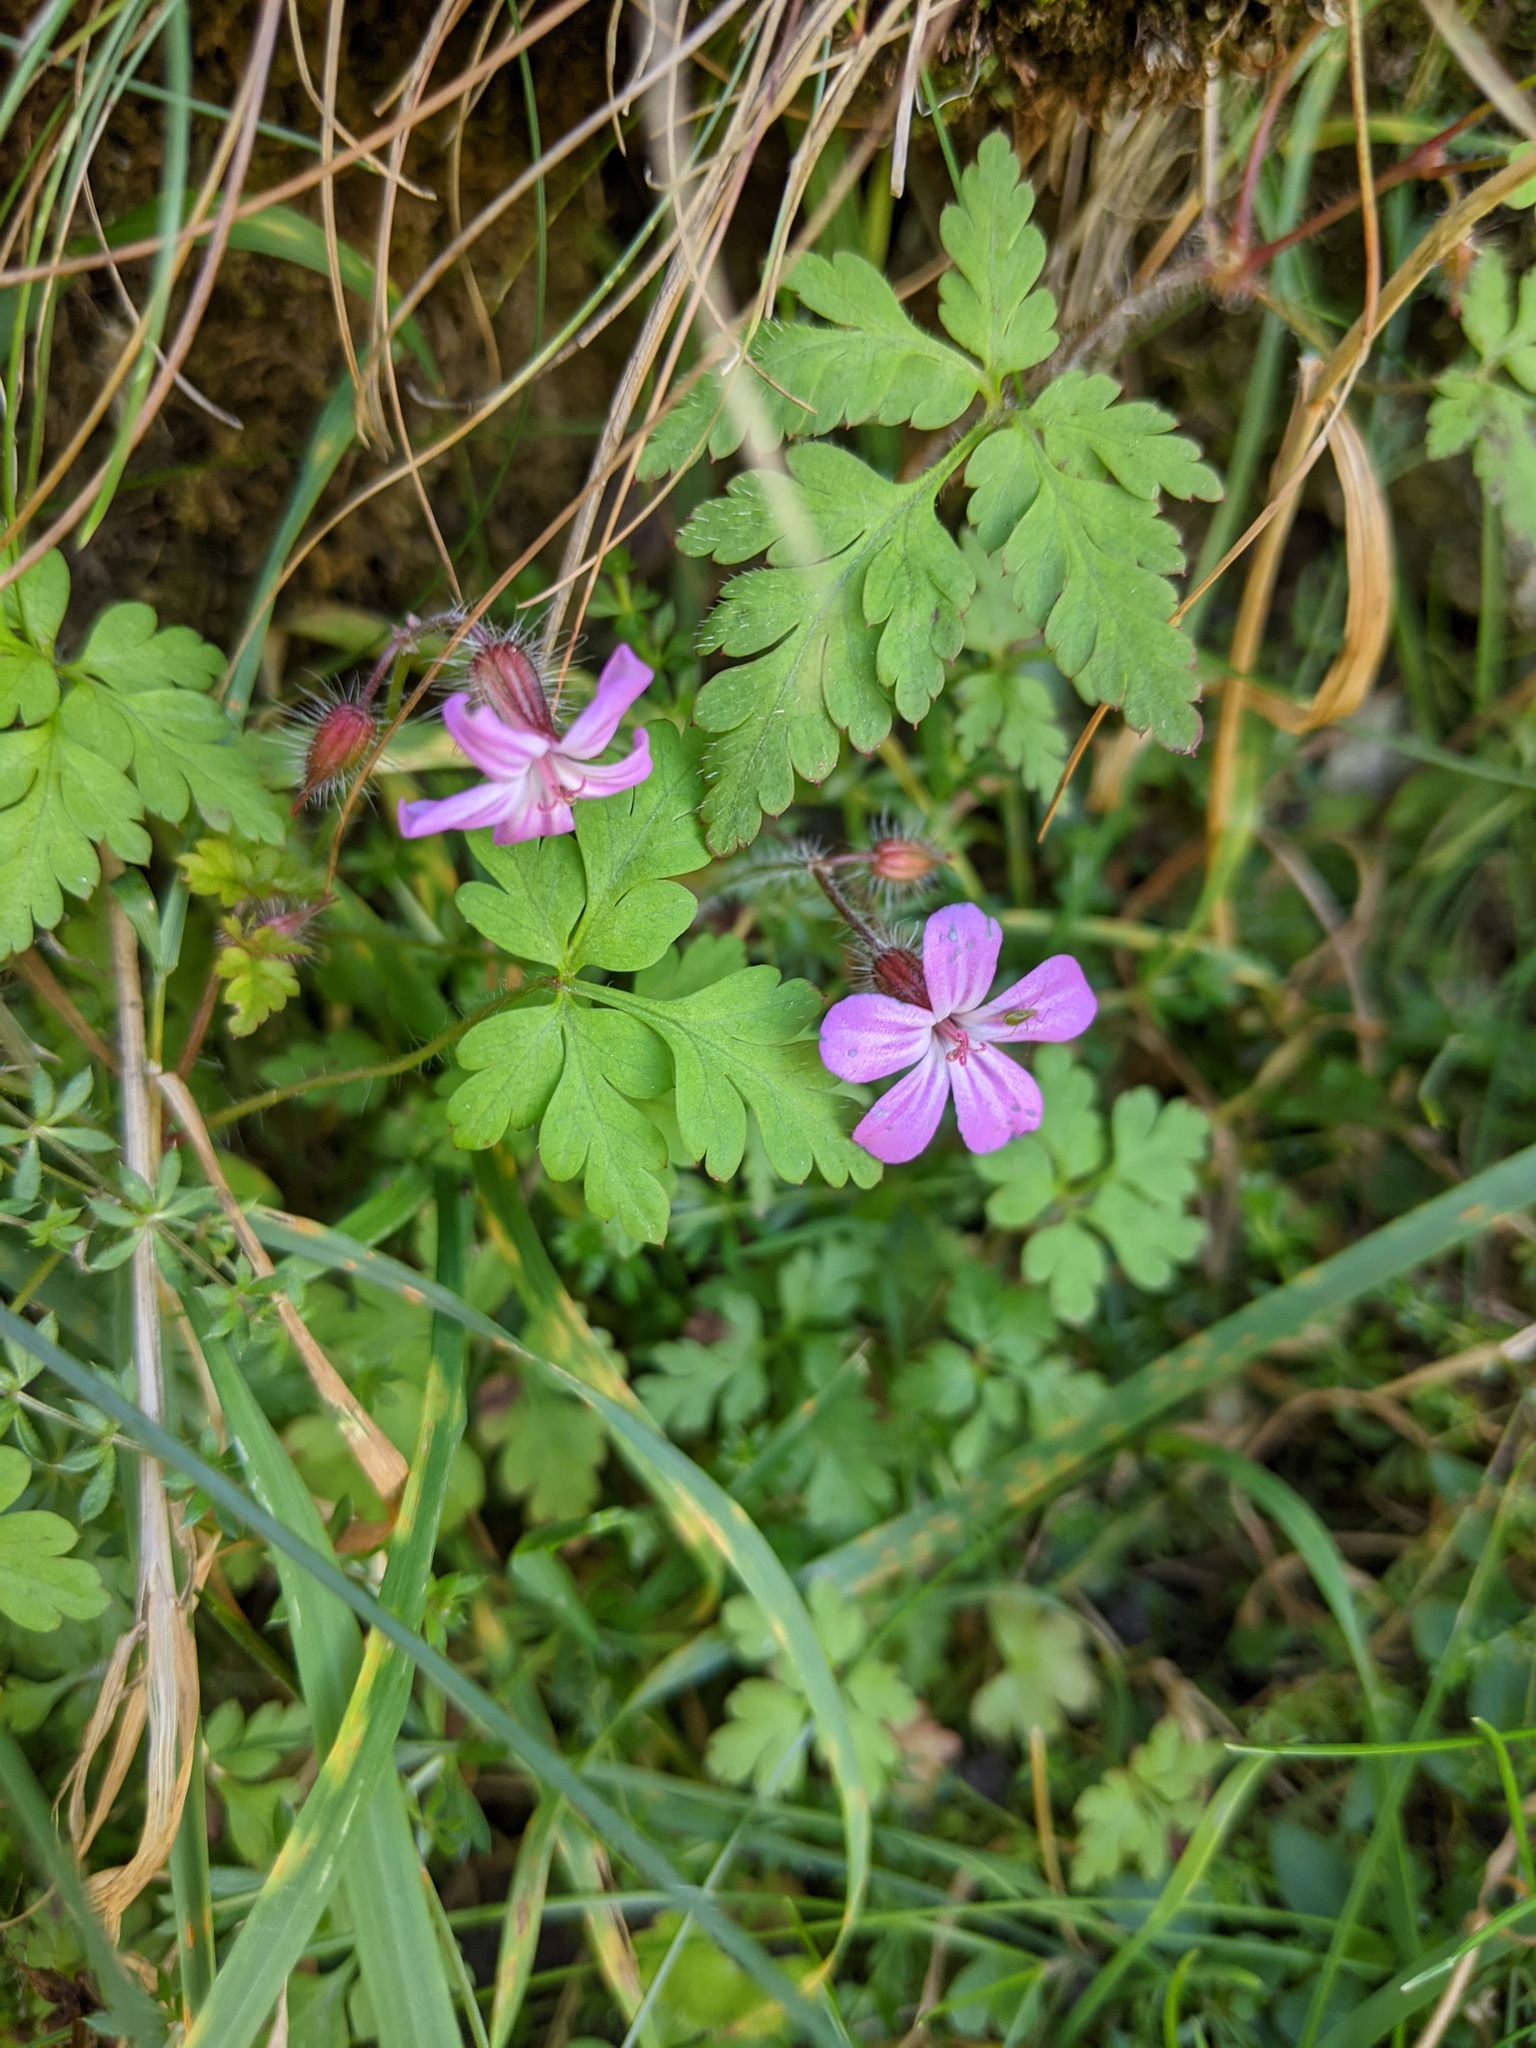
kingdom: Plantae
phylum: Tracheophyta
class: Magnoliopsida
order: Geraniales
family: Geraniaceae
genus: Geranium
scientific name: Geranium robertianum
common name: Herb-robert
